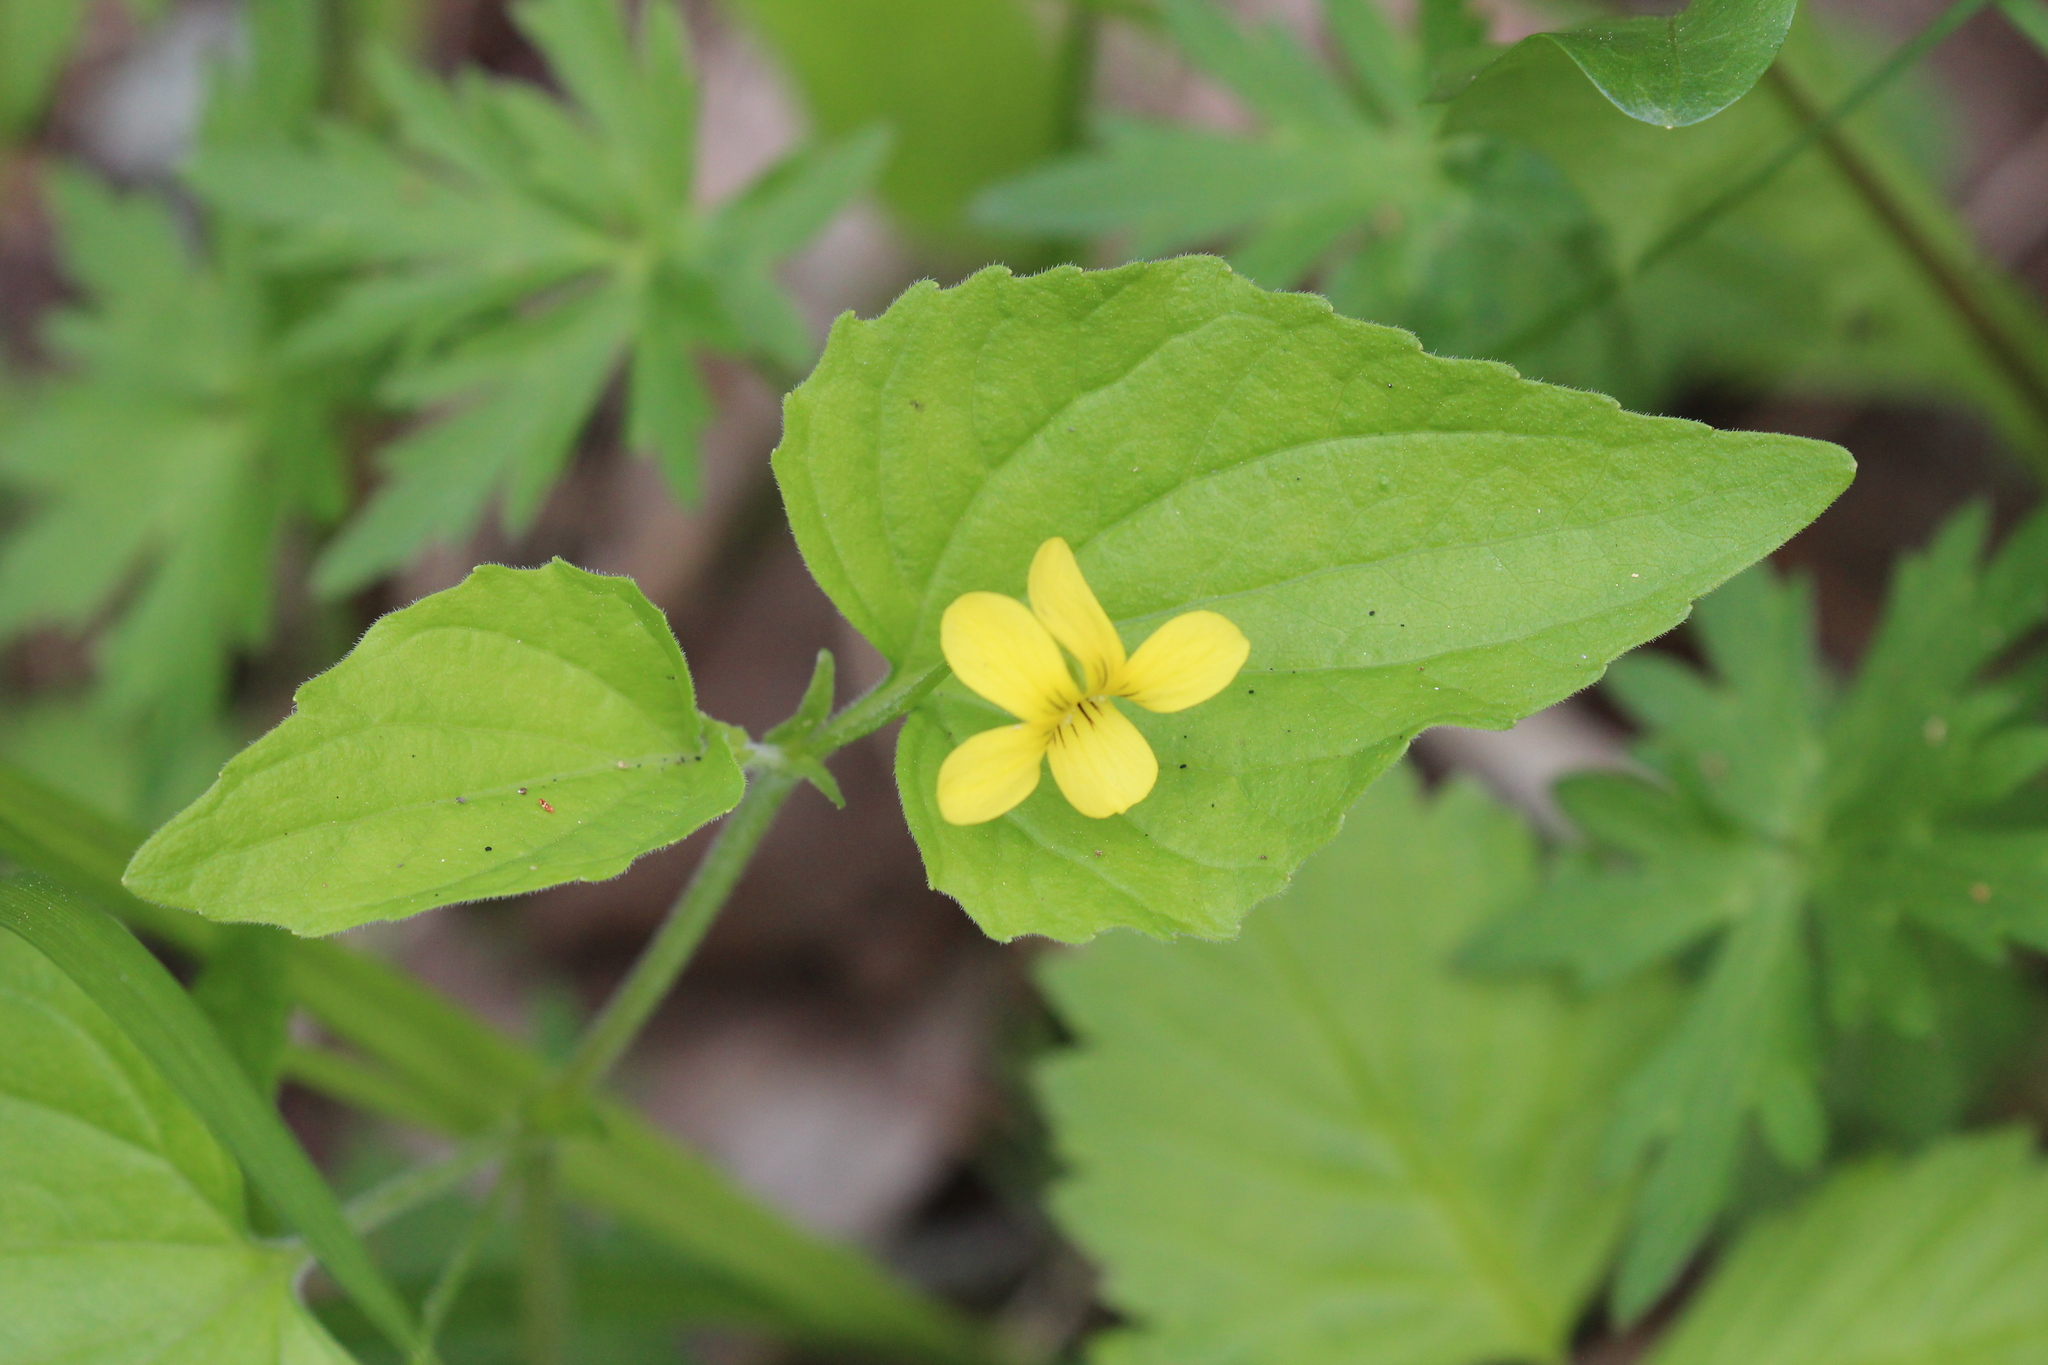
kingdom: Plantae
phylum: Tracheophyta
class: Magnoliopsida
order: Malpighiales
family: Violaceae
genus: Viola
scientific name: Viola eriocarpa
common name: Smooth yellow violet
